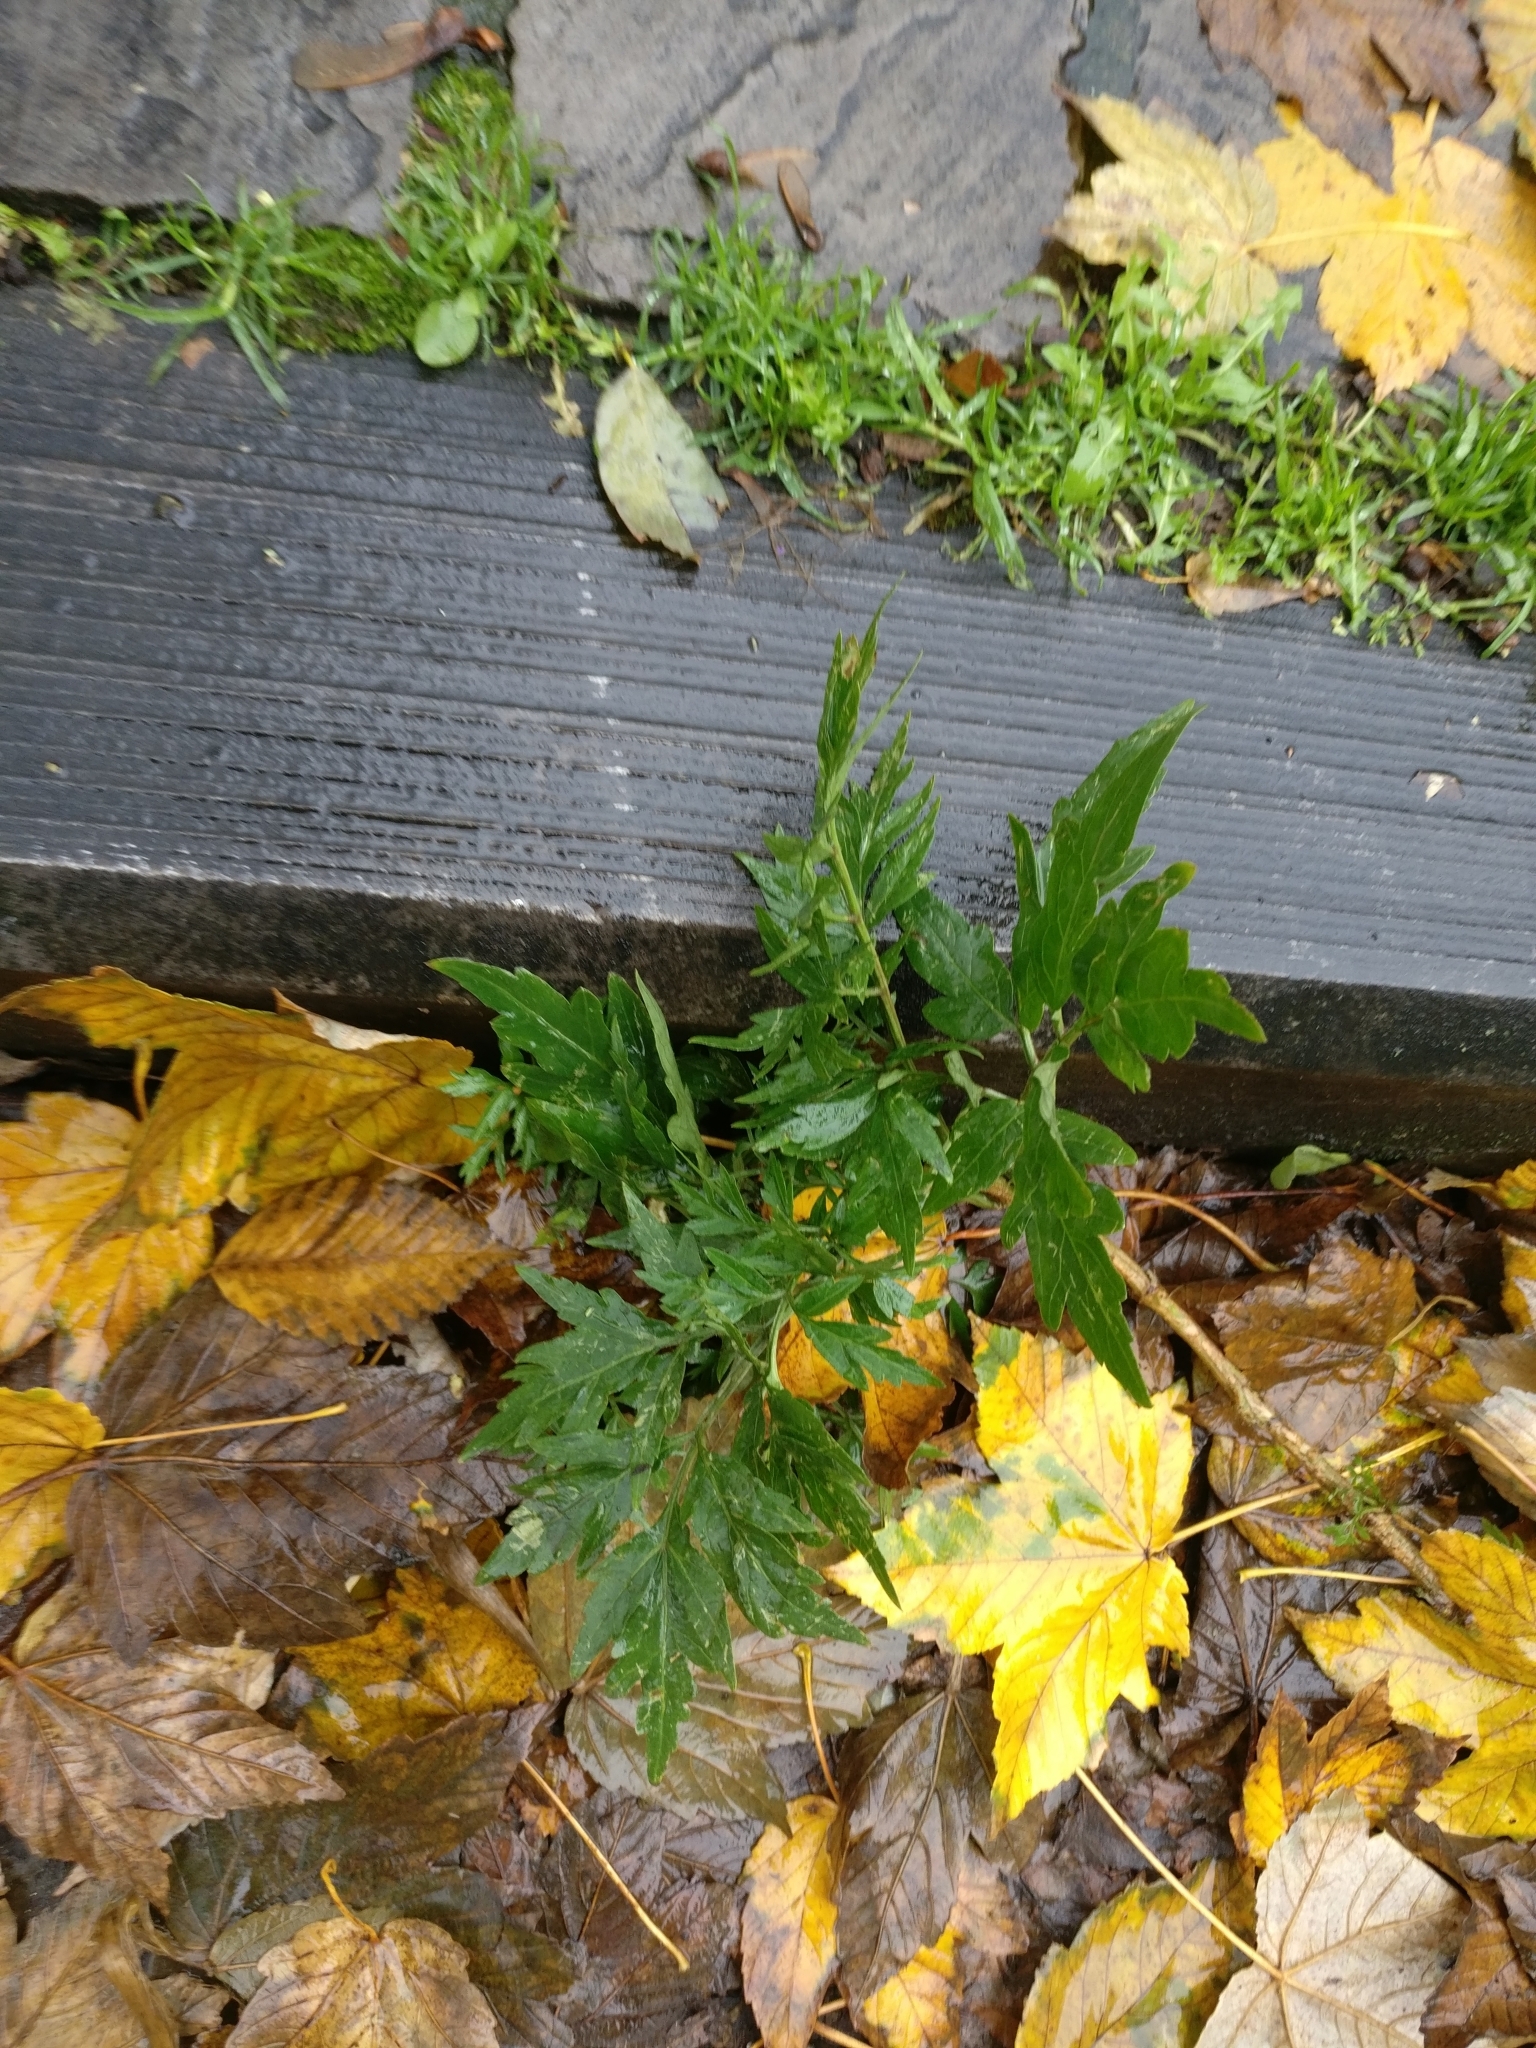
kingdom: Plantae
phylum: Tracheophyta
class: Magnoliopsida
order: Dipsacales
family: Viburnaceae
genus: Sambucus
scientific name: Sambucus nigra
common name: Elder
